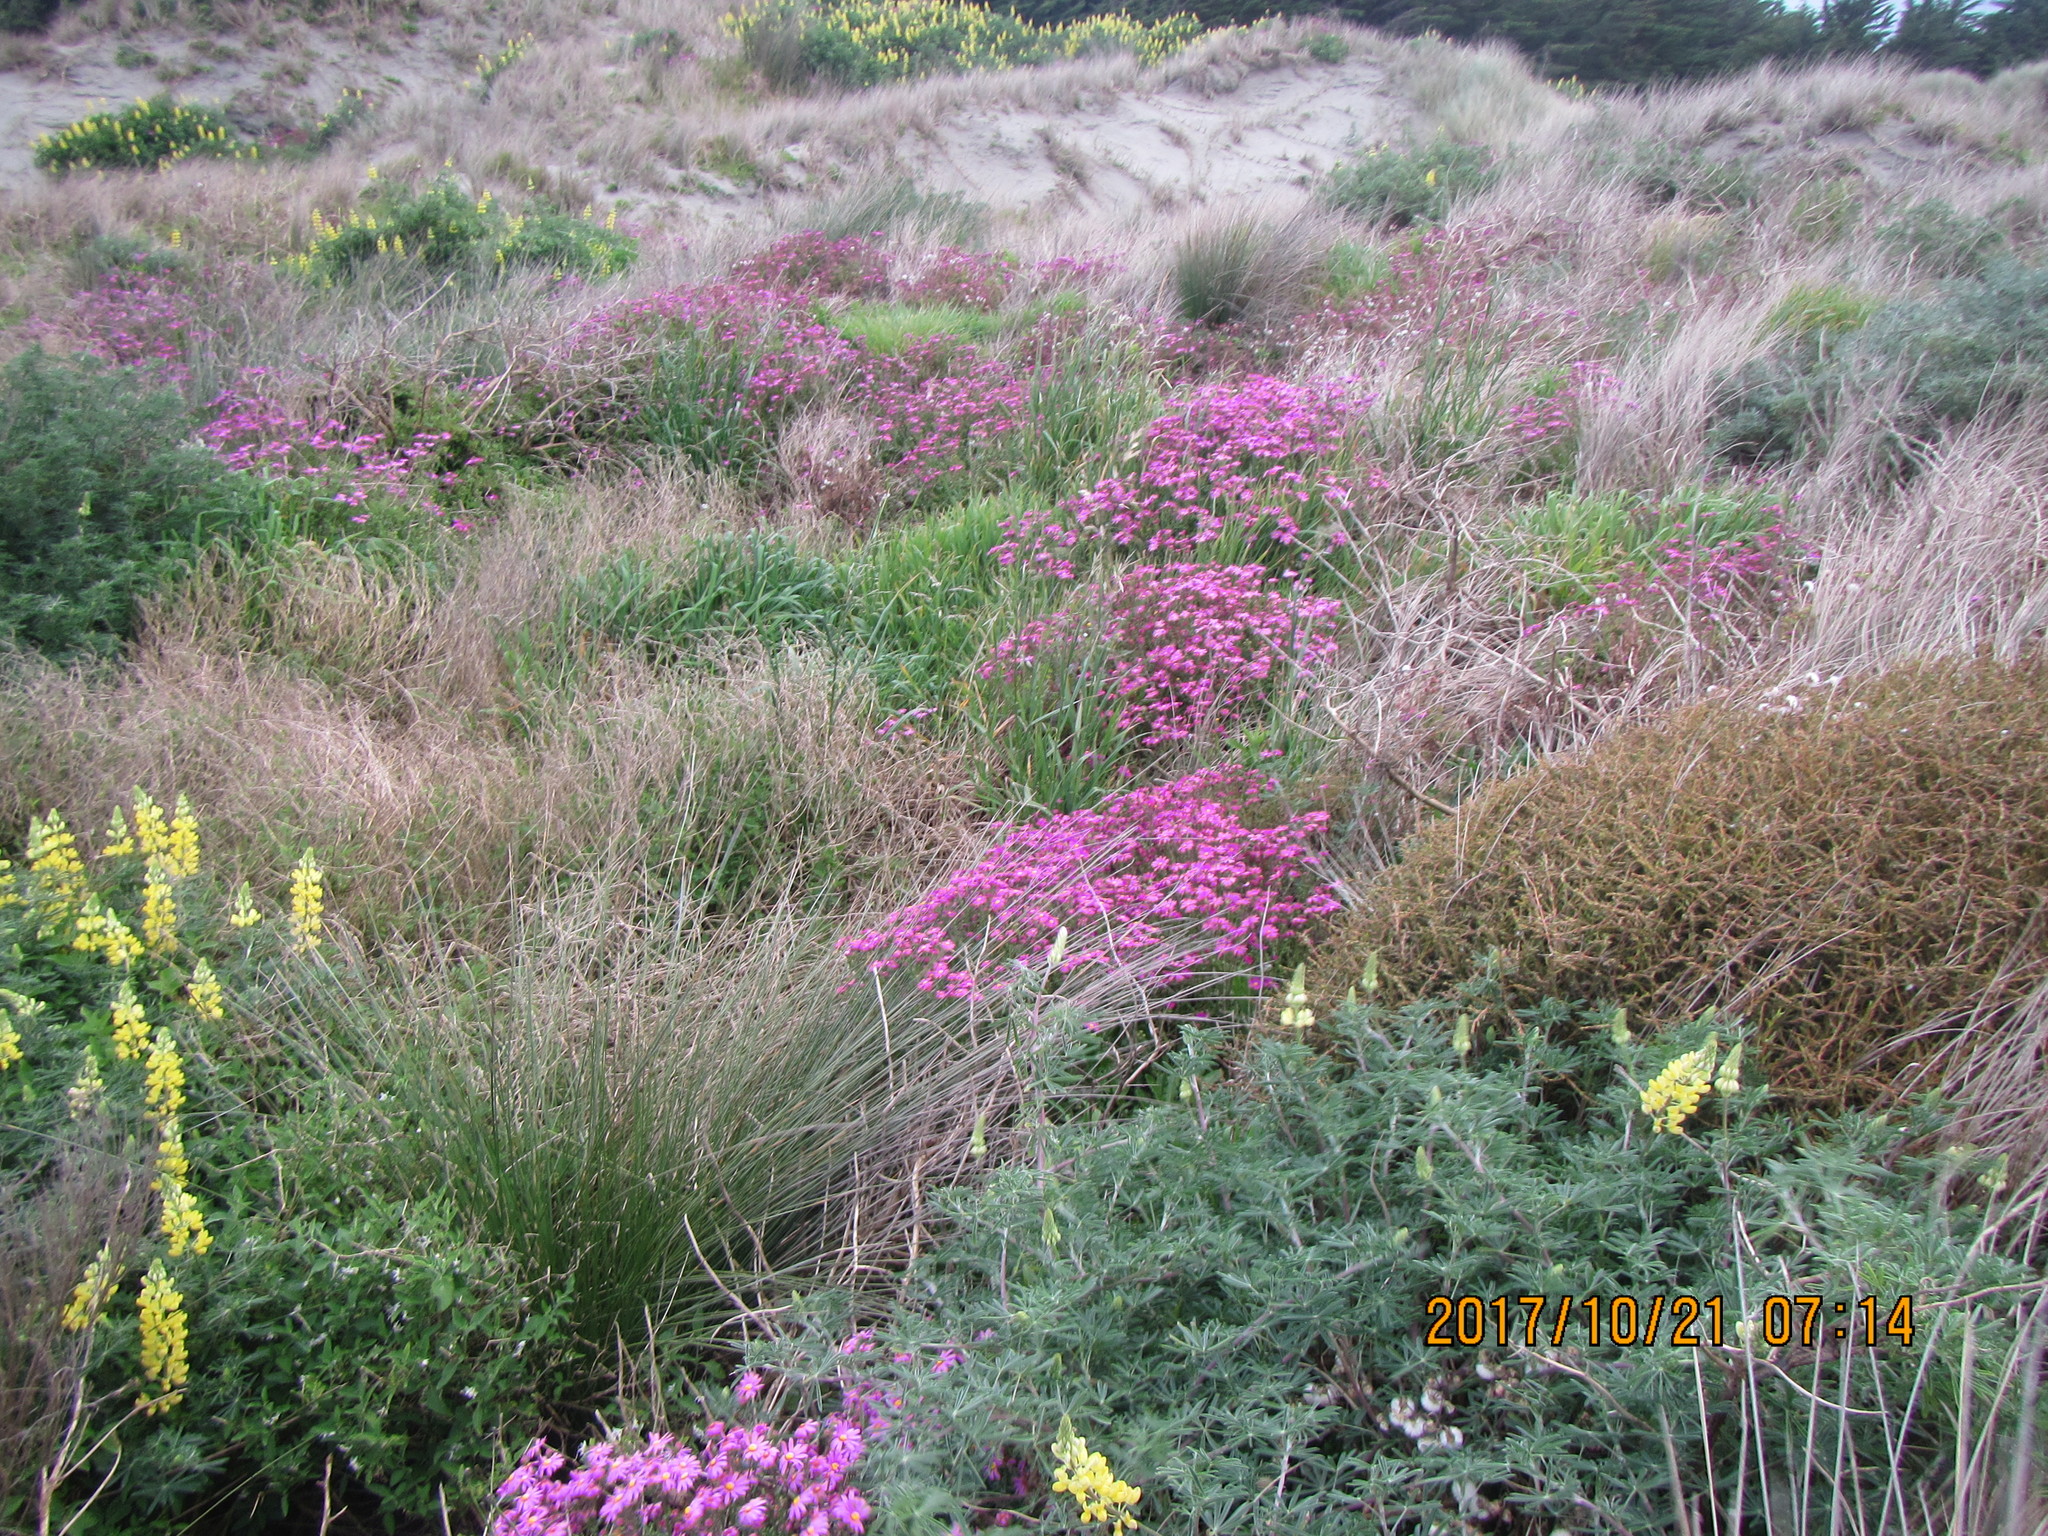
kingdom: Plantae
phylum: Tracheophyta
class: Magnoliopsida
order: Asterales
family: Asteraceae
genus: Senecio
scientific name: Senecio elegans
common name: Purple groundsel
